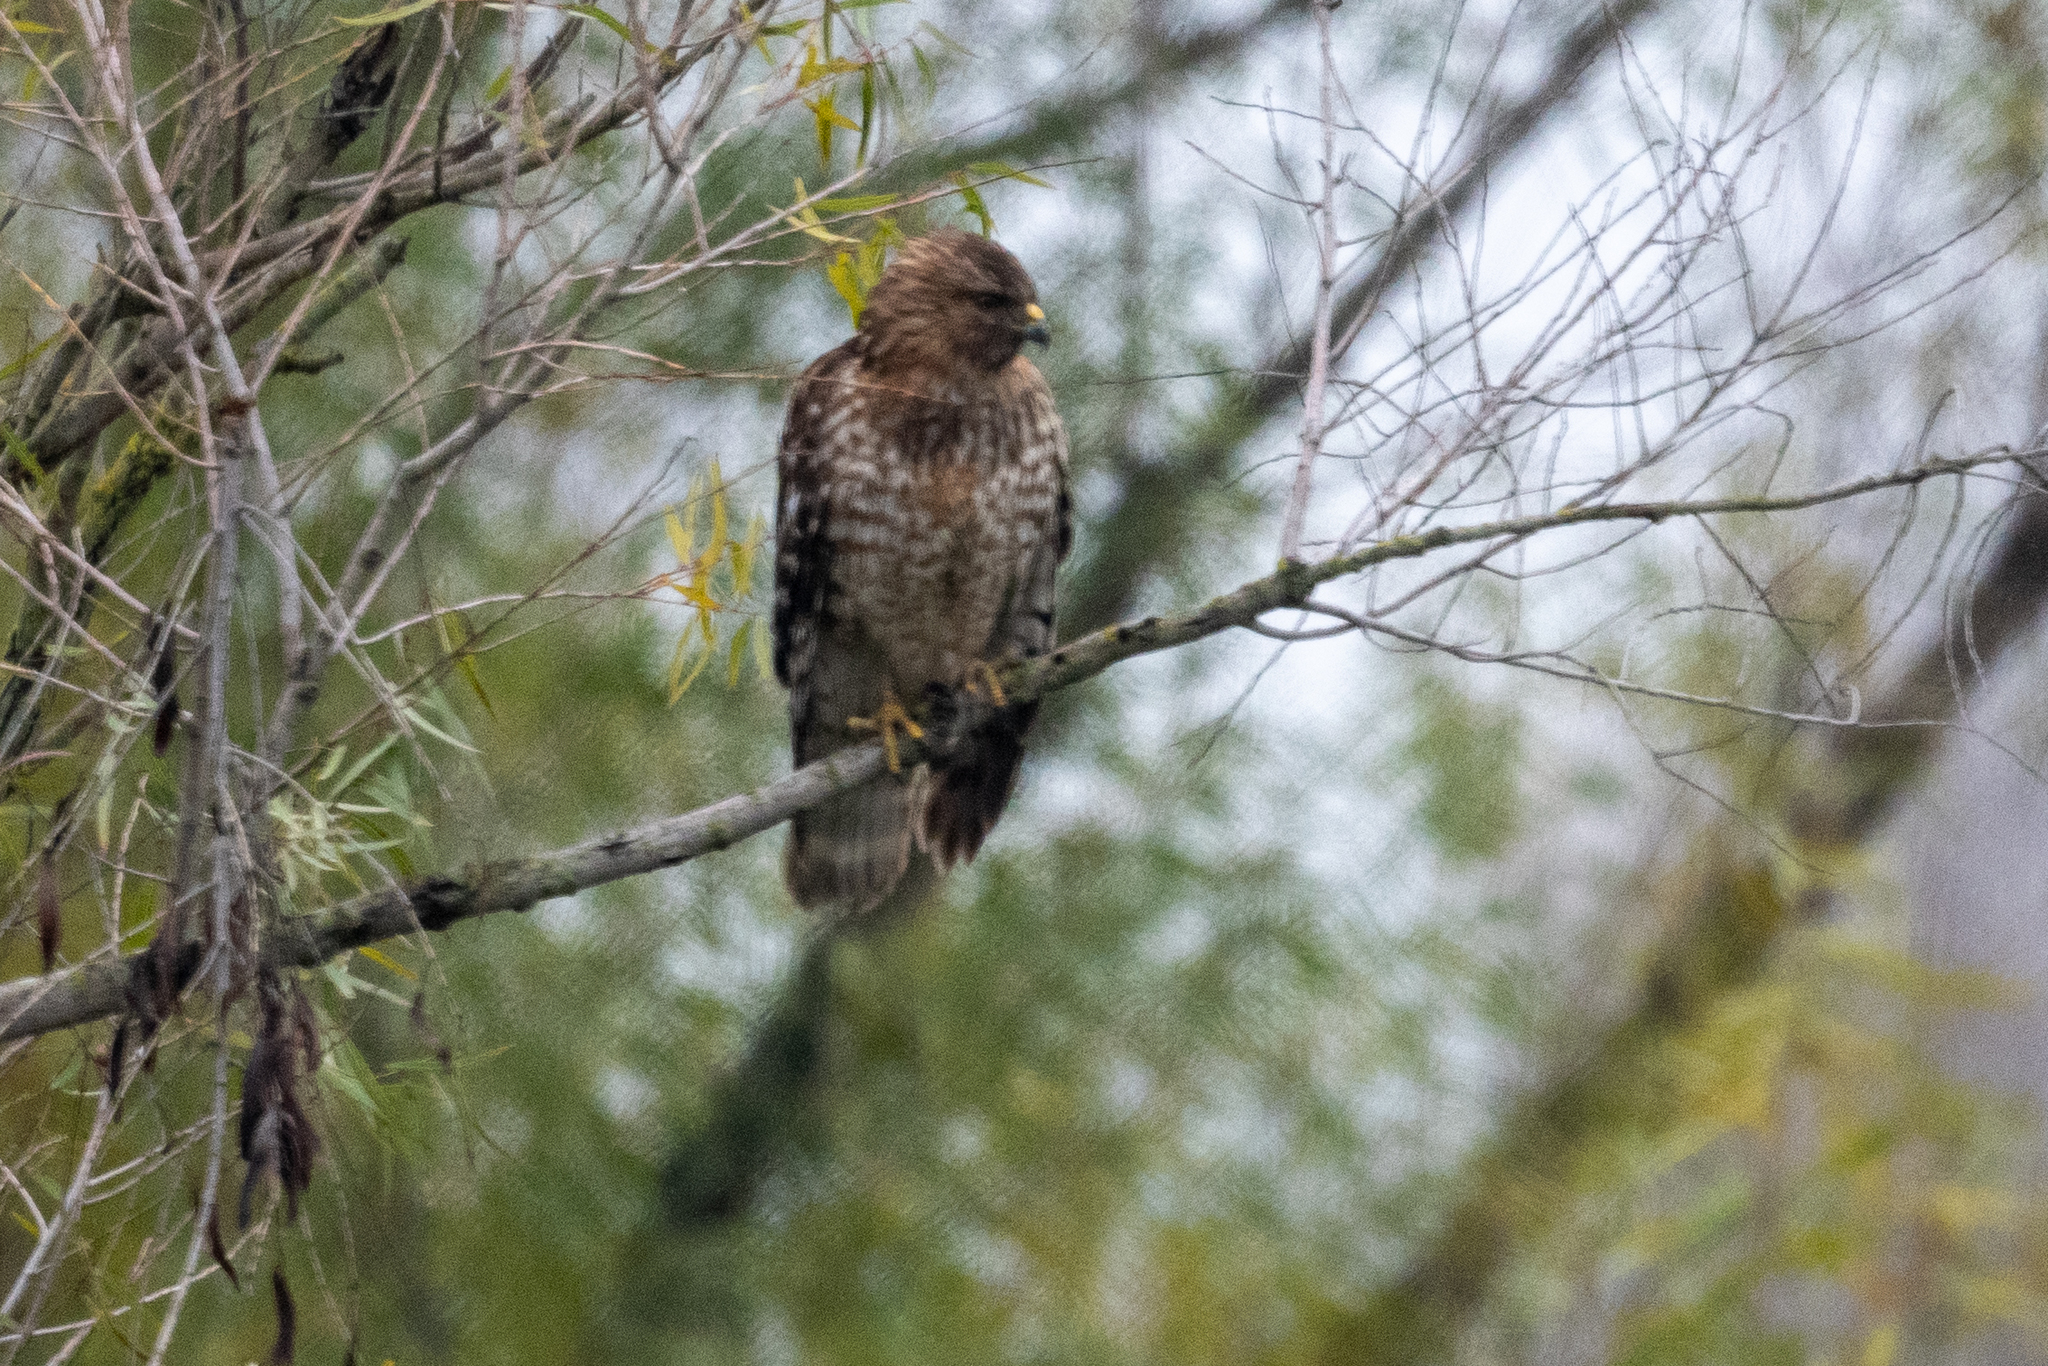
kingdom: Animalia
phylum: Chordata
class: Aves
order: Accipitriformes
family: Accipitridae
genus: Buteo
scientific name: Buteo lineatus
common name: Red-shouldered hawk
